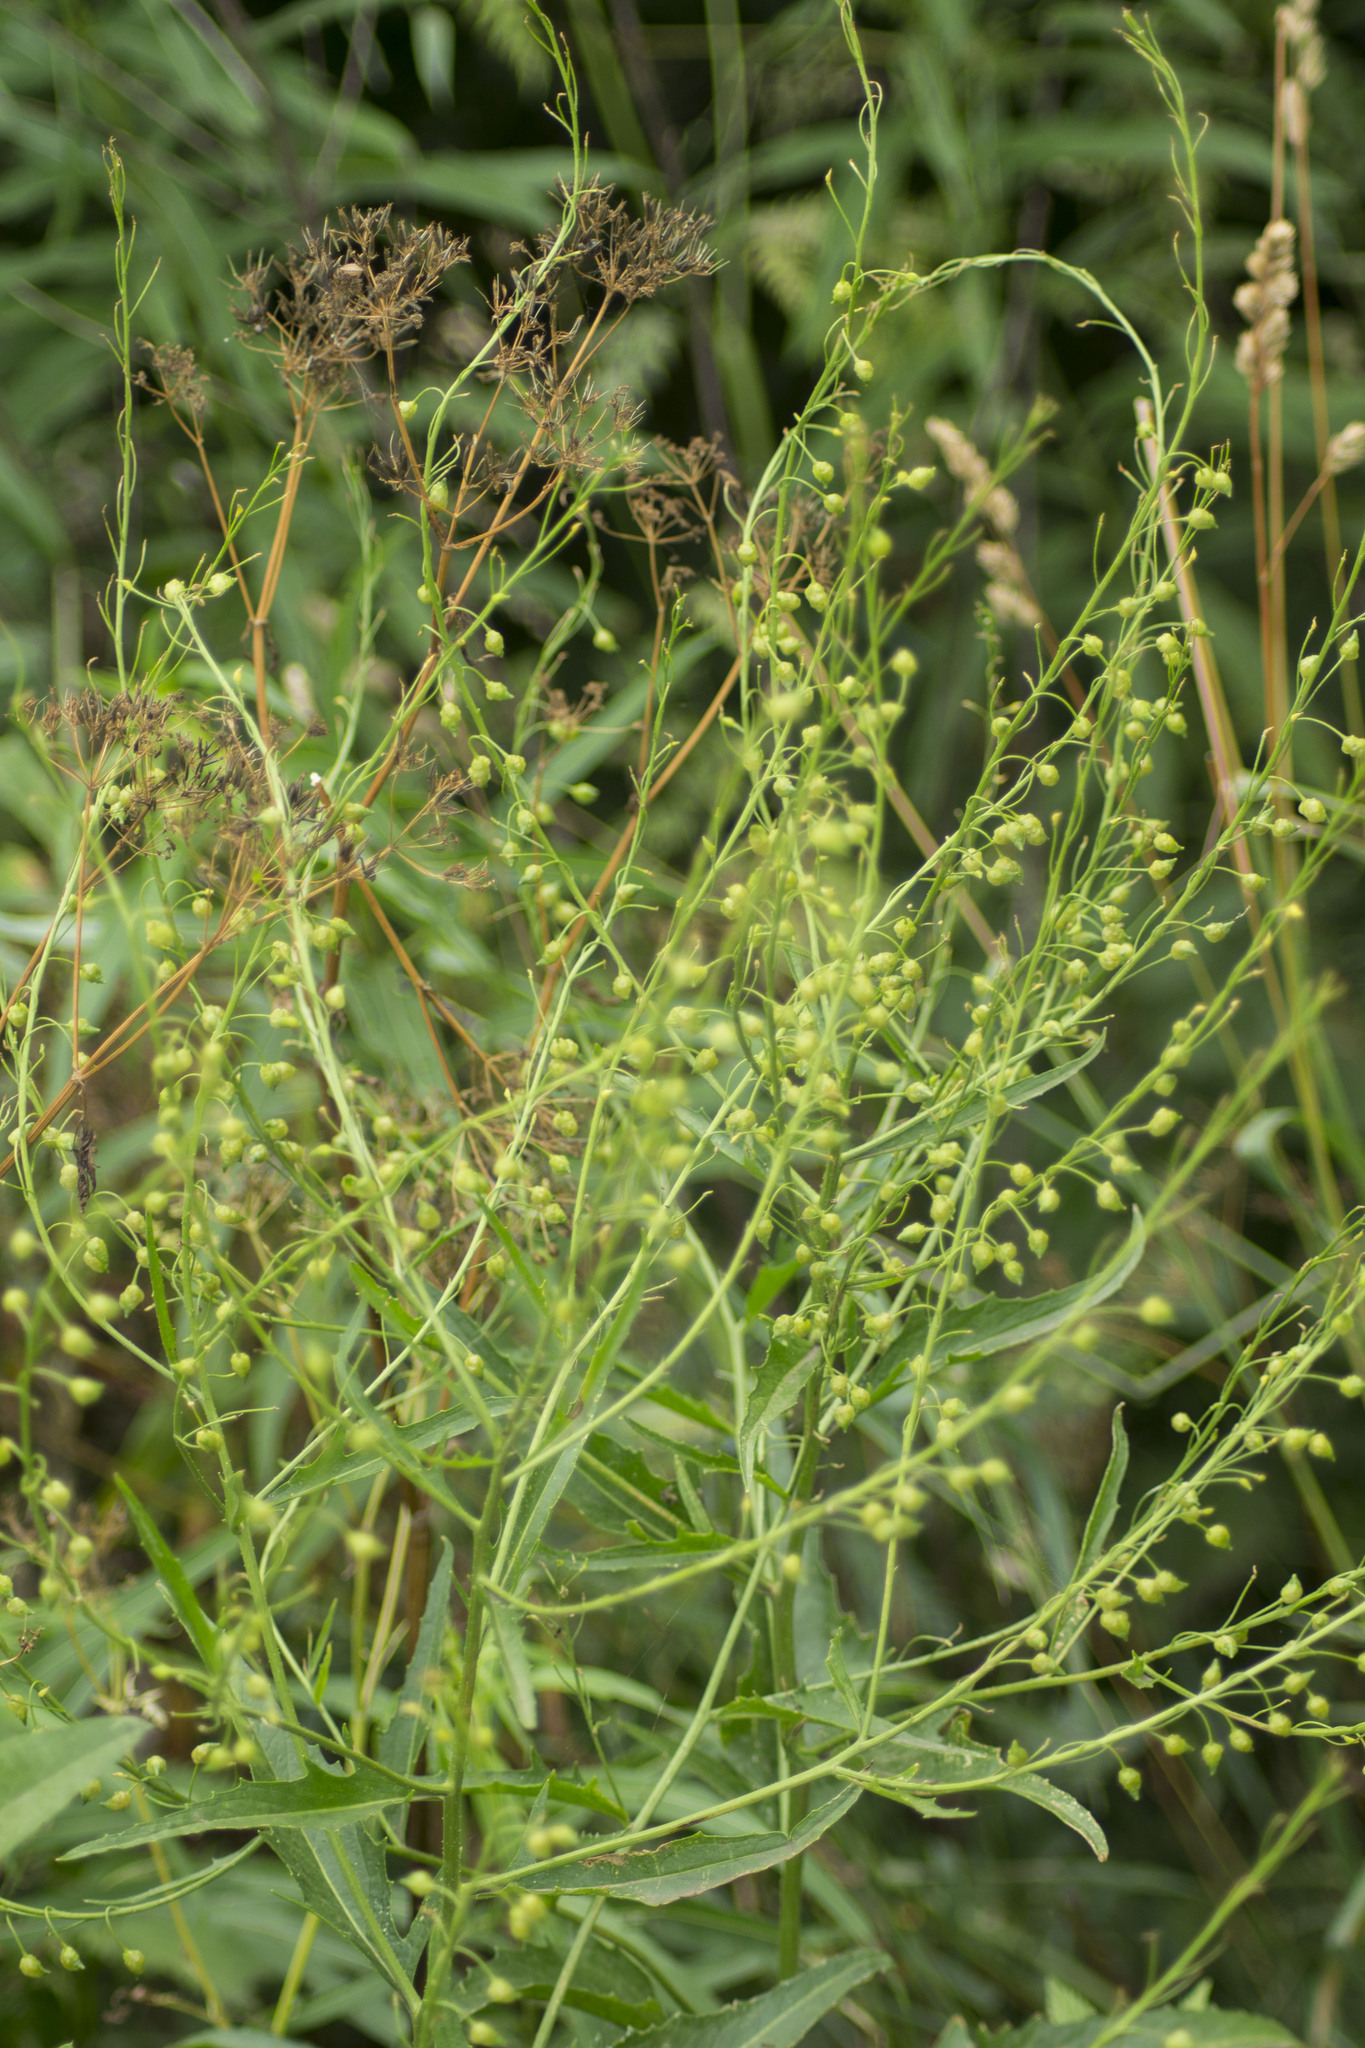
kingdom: Plantae
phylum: Tracheophyta
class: Magnoliopsida
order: Brassicales
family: Brassicaceae
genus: Bunias
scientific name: Bunias orientalis
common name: Warty-cabbage
